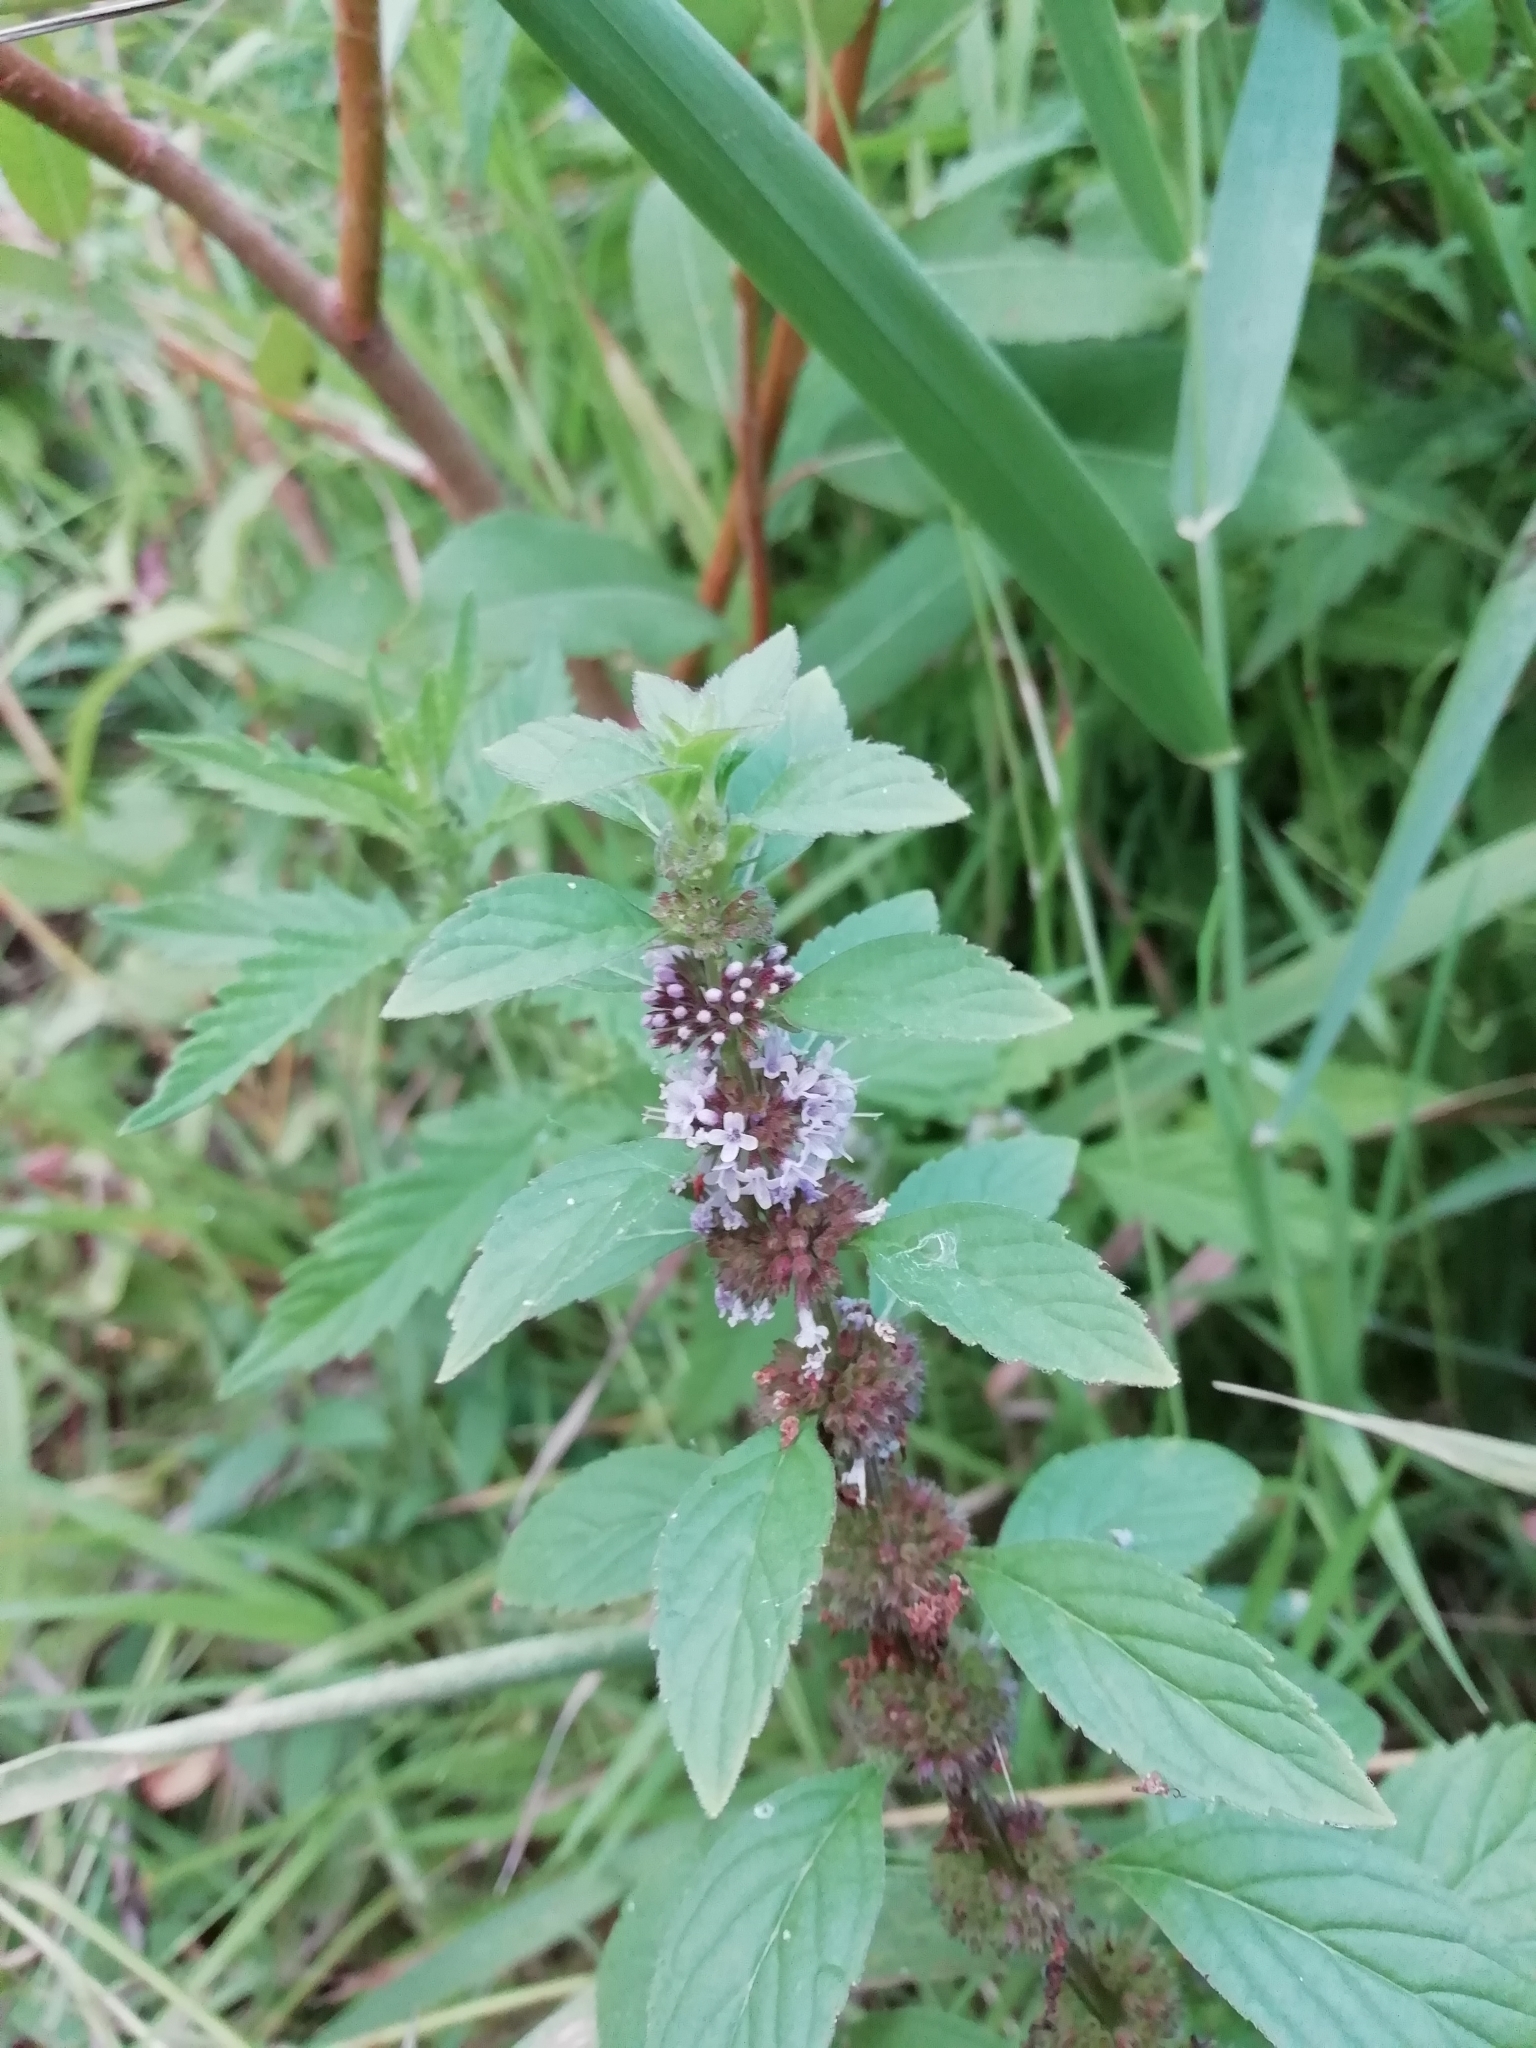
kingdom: Plantae
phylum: Tracheophyta
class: Magnoliopsida
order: Lamiales
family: Lamiaceae
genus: Mentha
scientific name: Mentha arvensis
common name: Corn mint
